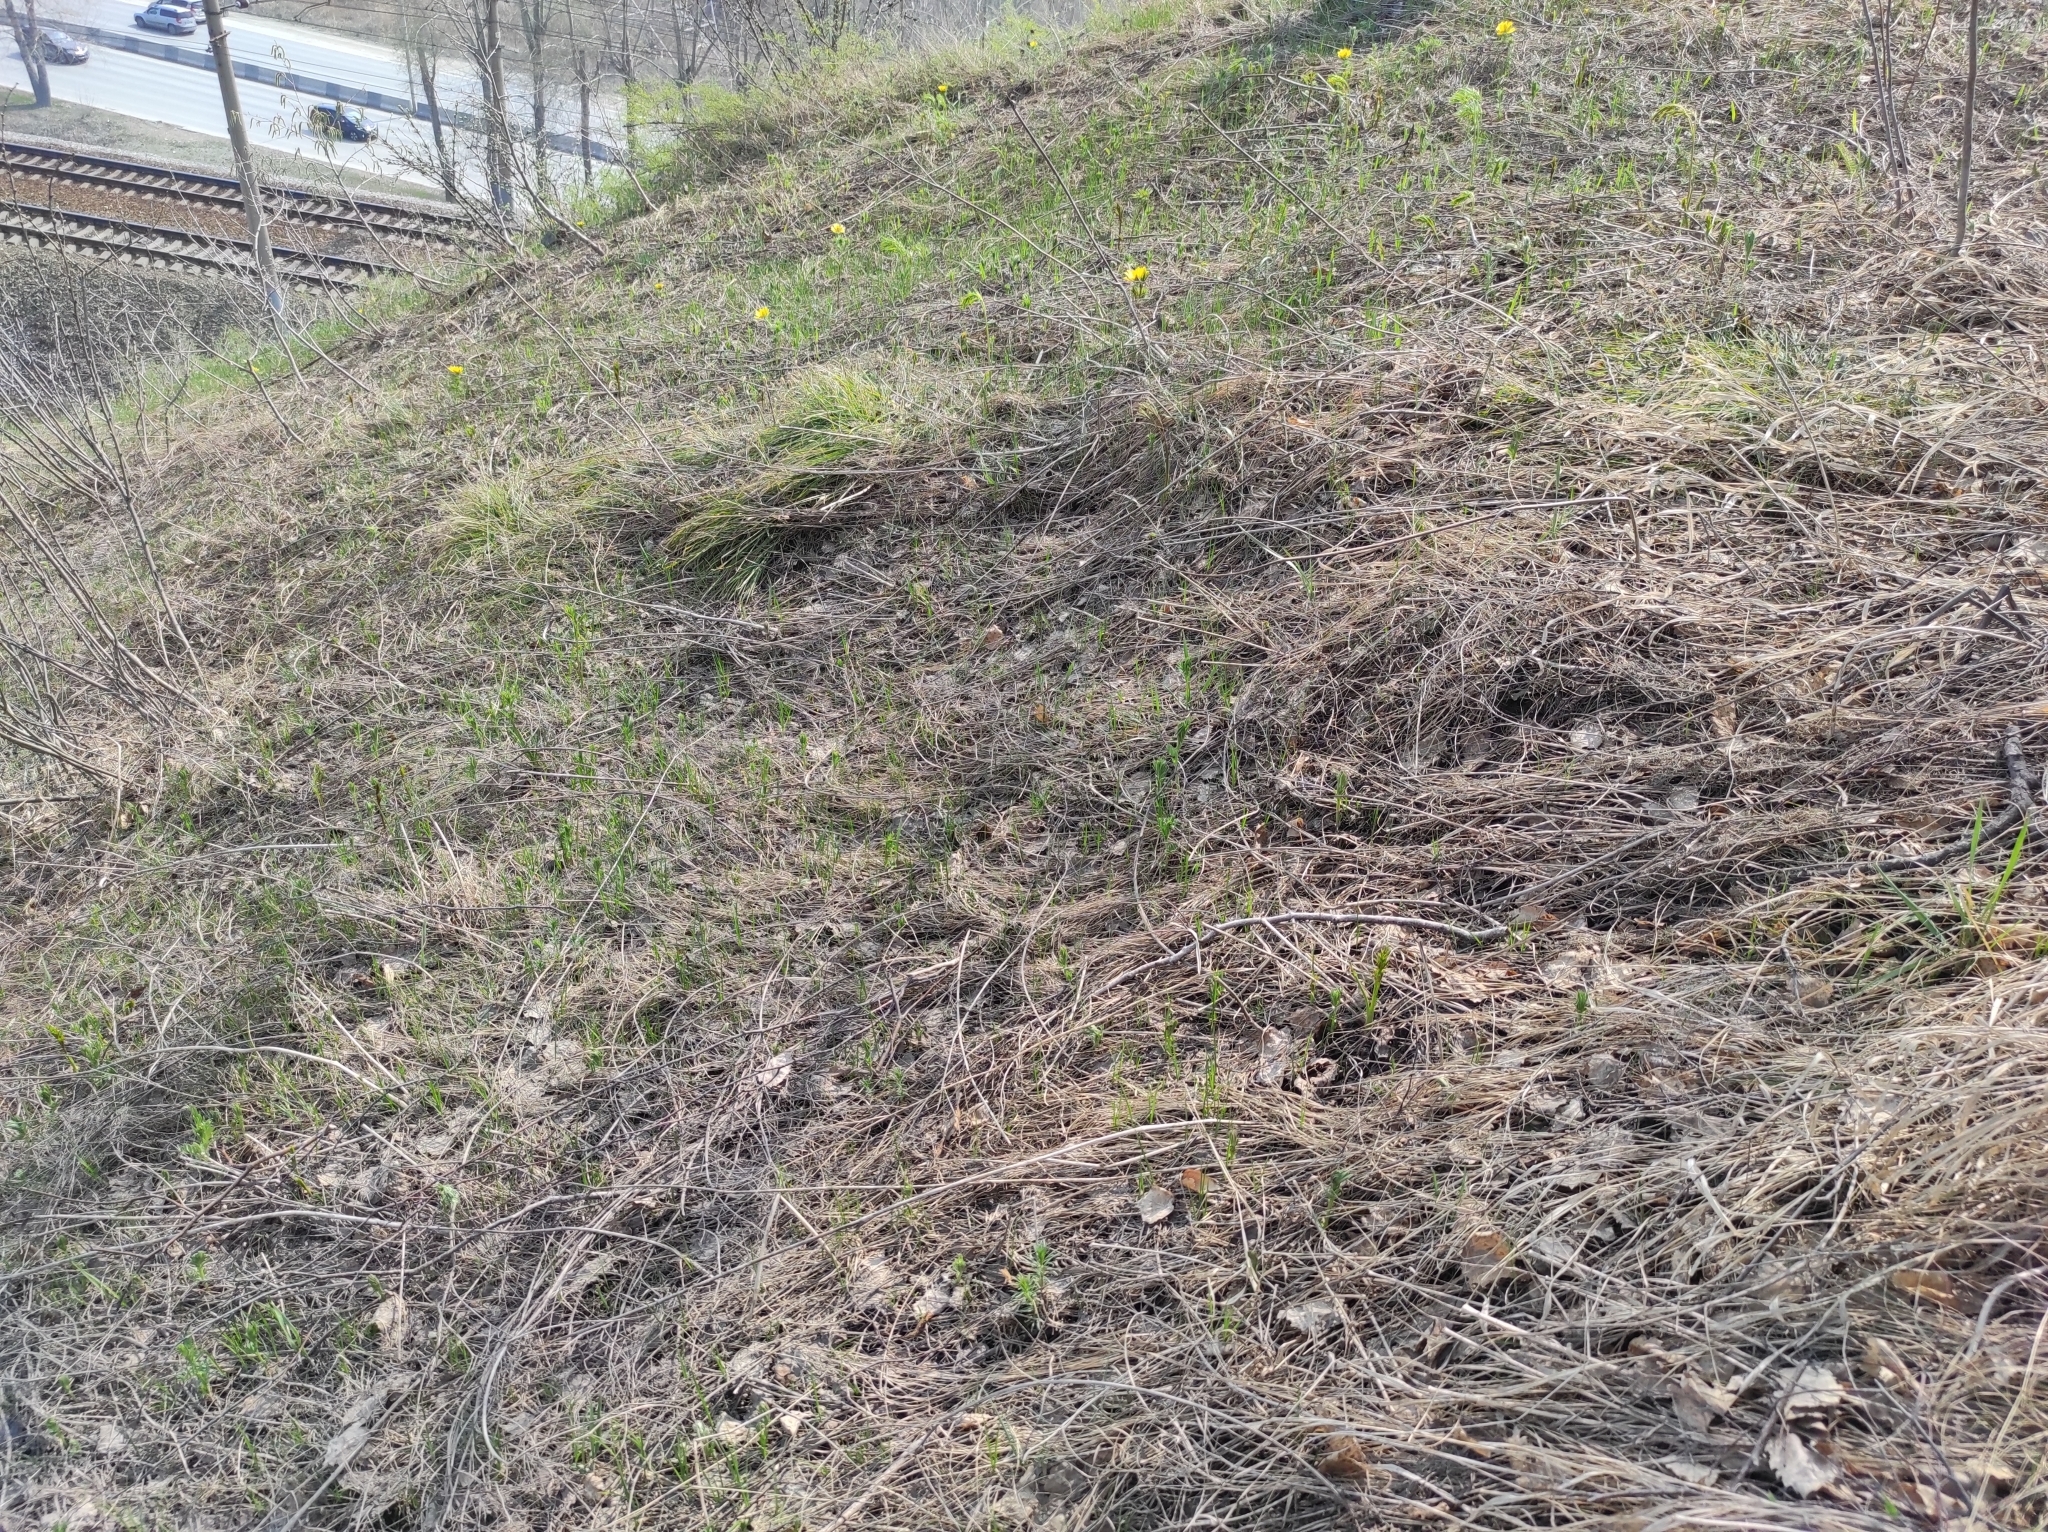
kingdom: Plantae
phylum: Tracheophyta
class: Magnoliopsida
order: Ranunculales
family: Ranunculaceae
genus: Adonis
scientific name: Adonis vernalis
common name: Yellow pheasants-eye
